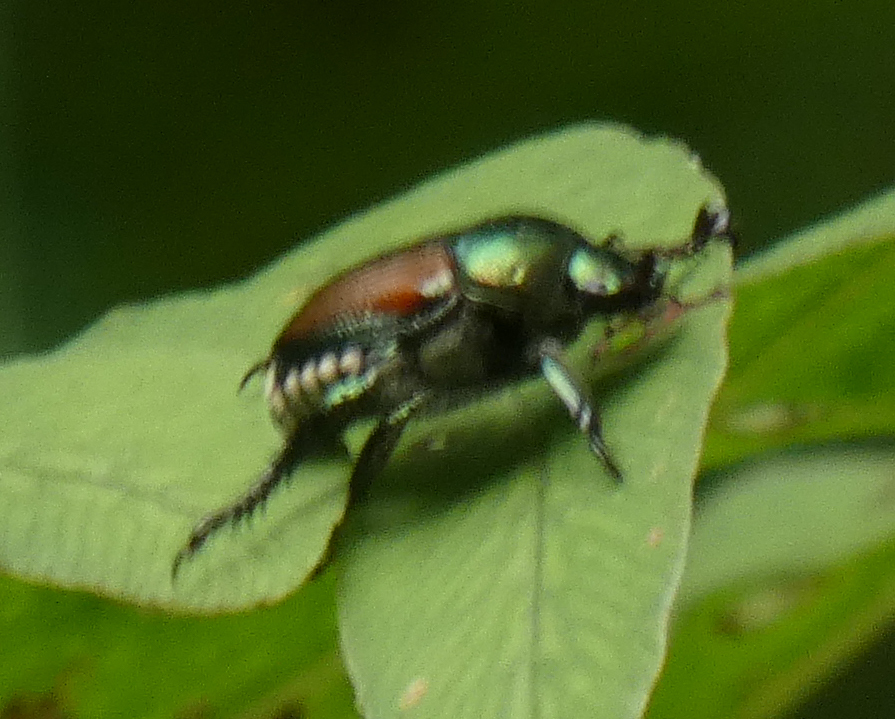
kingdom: Animalia
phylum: Arthropoda
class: Insecta
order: Coleoptera
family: Scarabaeidae
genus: Popillia
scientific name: Popillia japonica
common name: Japanese beetle
